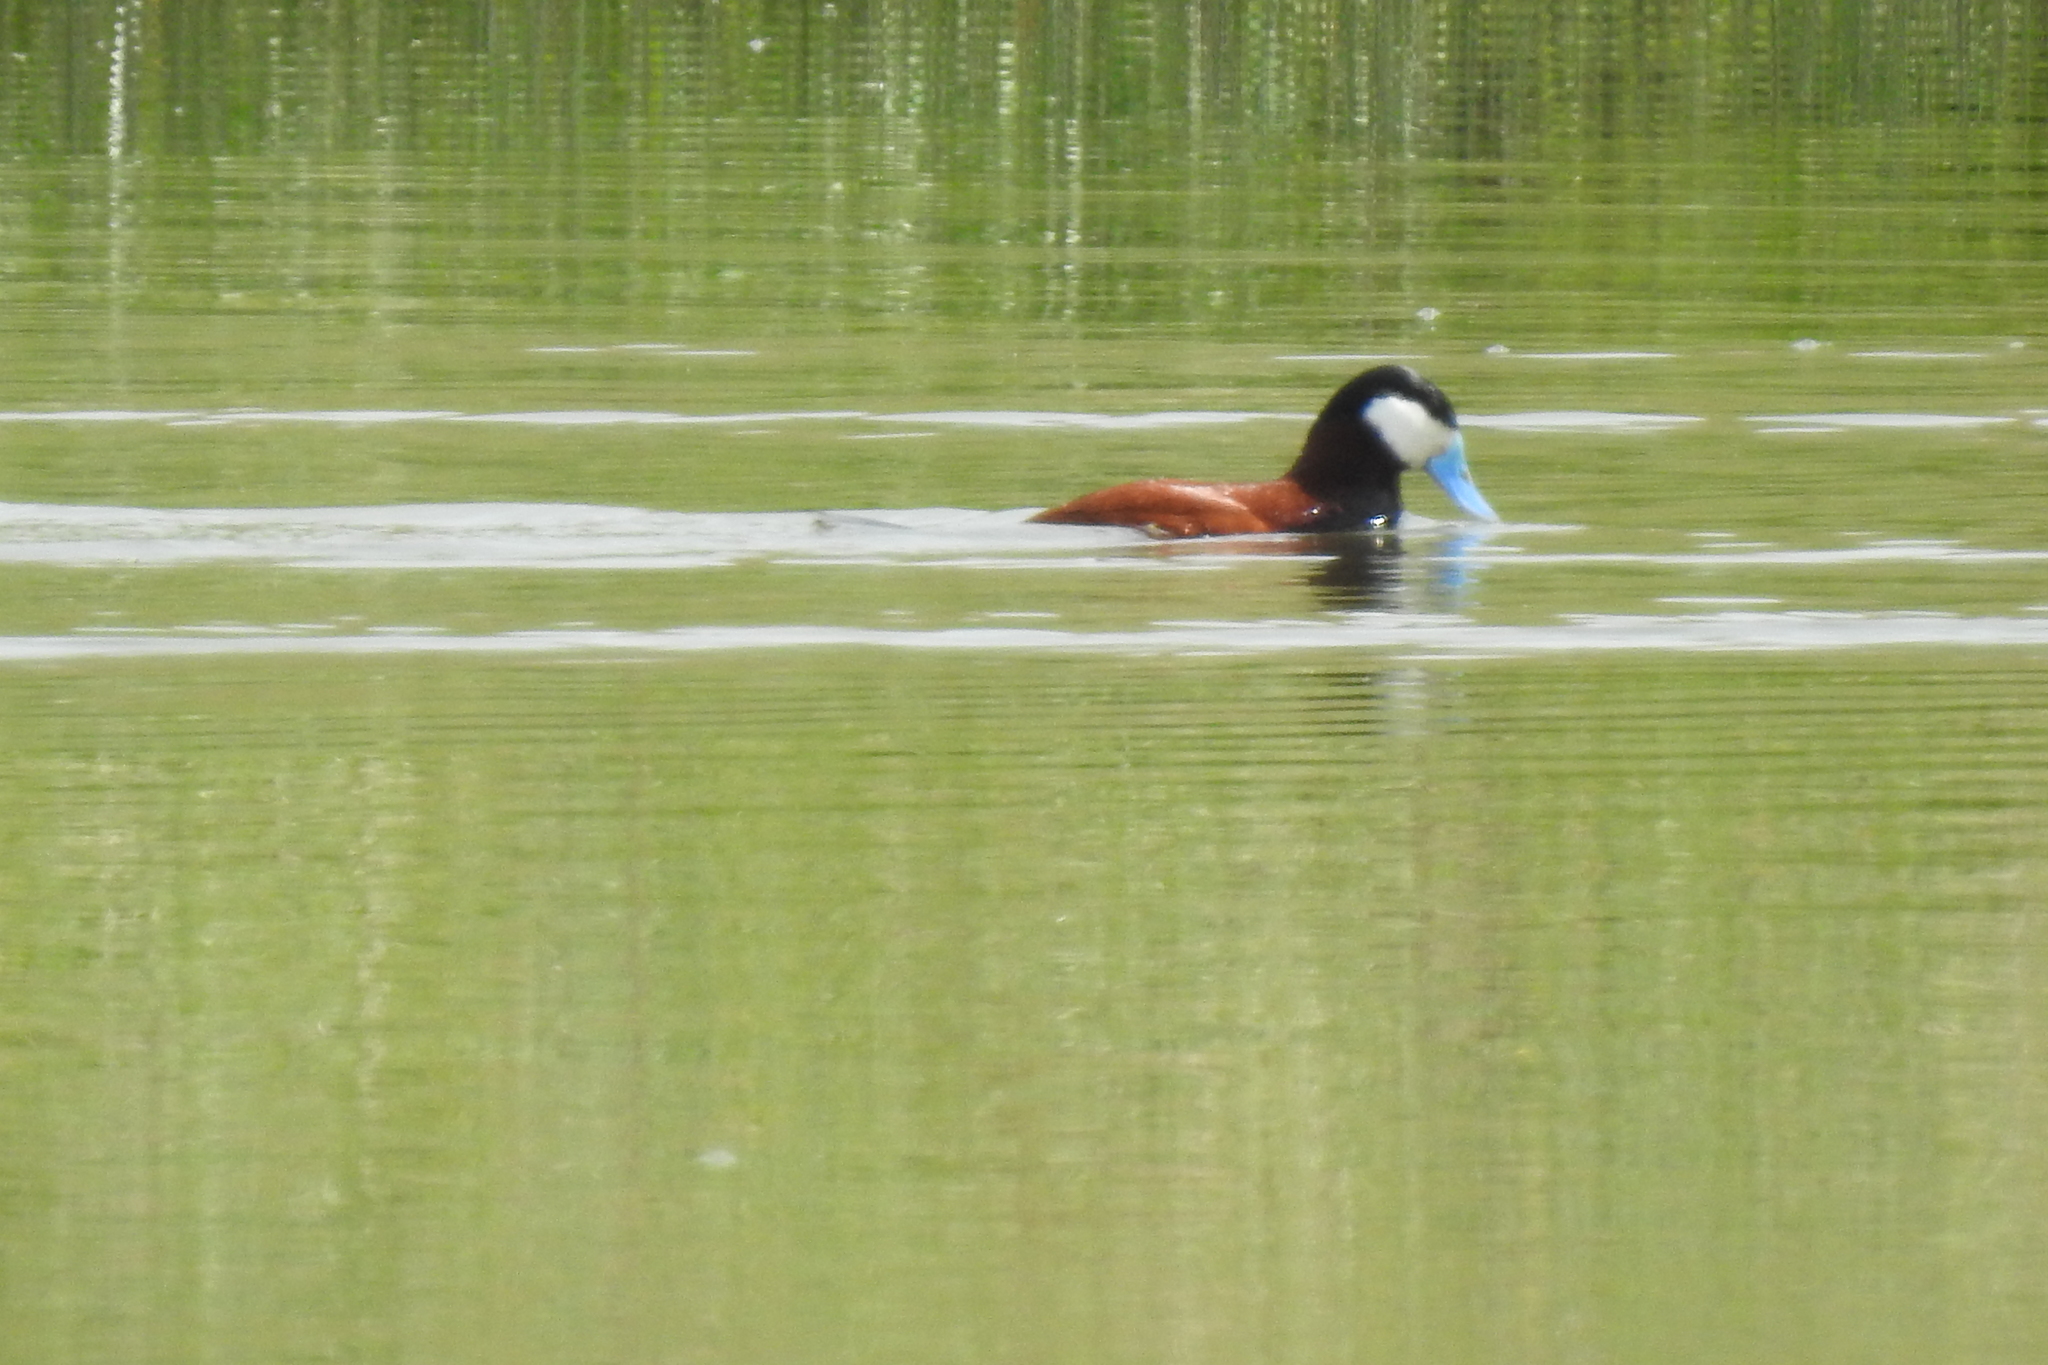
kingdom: Animalia
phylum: Chordata
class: Aves
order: Anseriformes
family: Anatidae
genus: Oxyura
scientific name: Oxyura jamaicensis
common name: Ruddy duck
